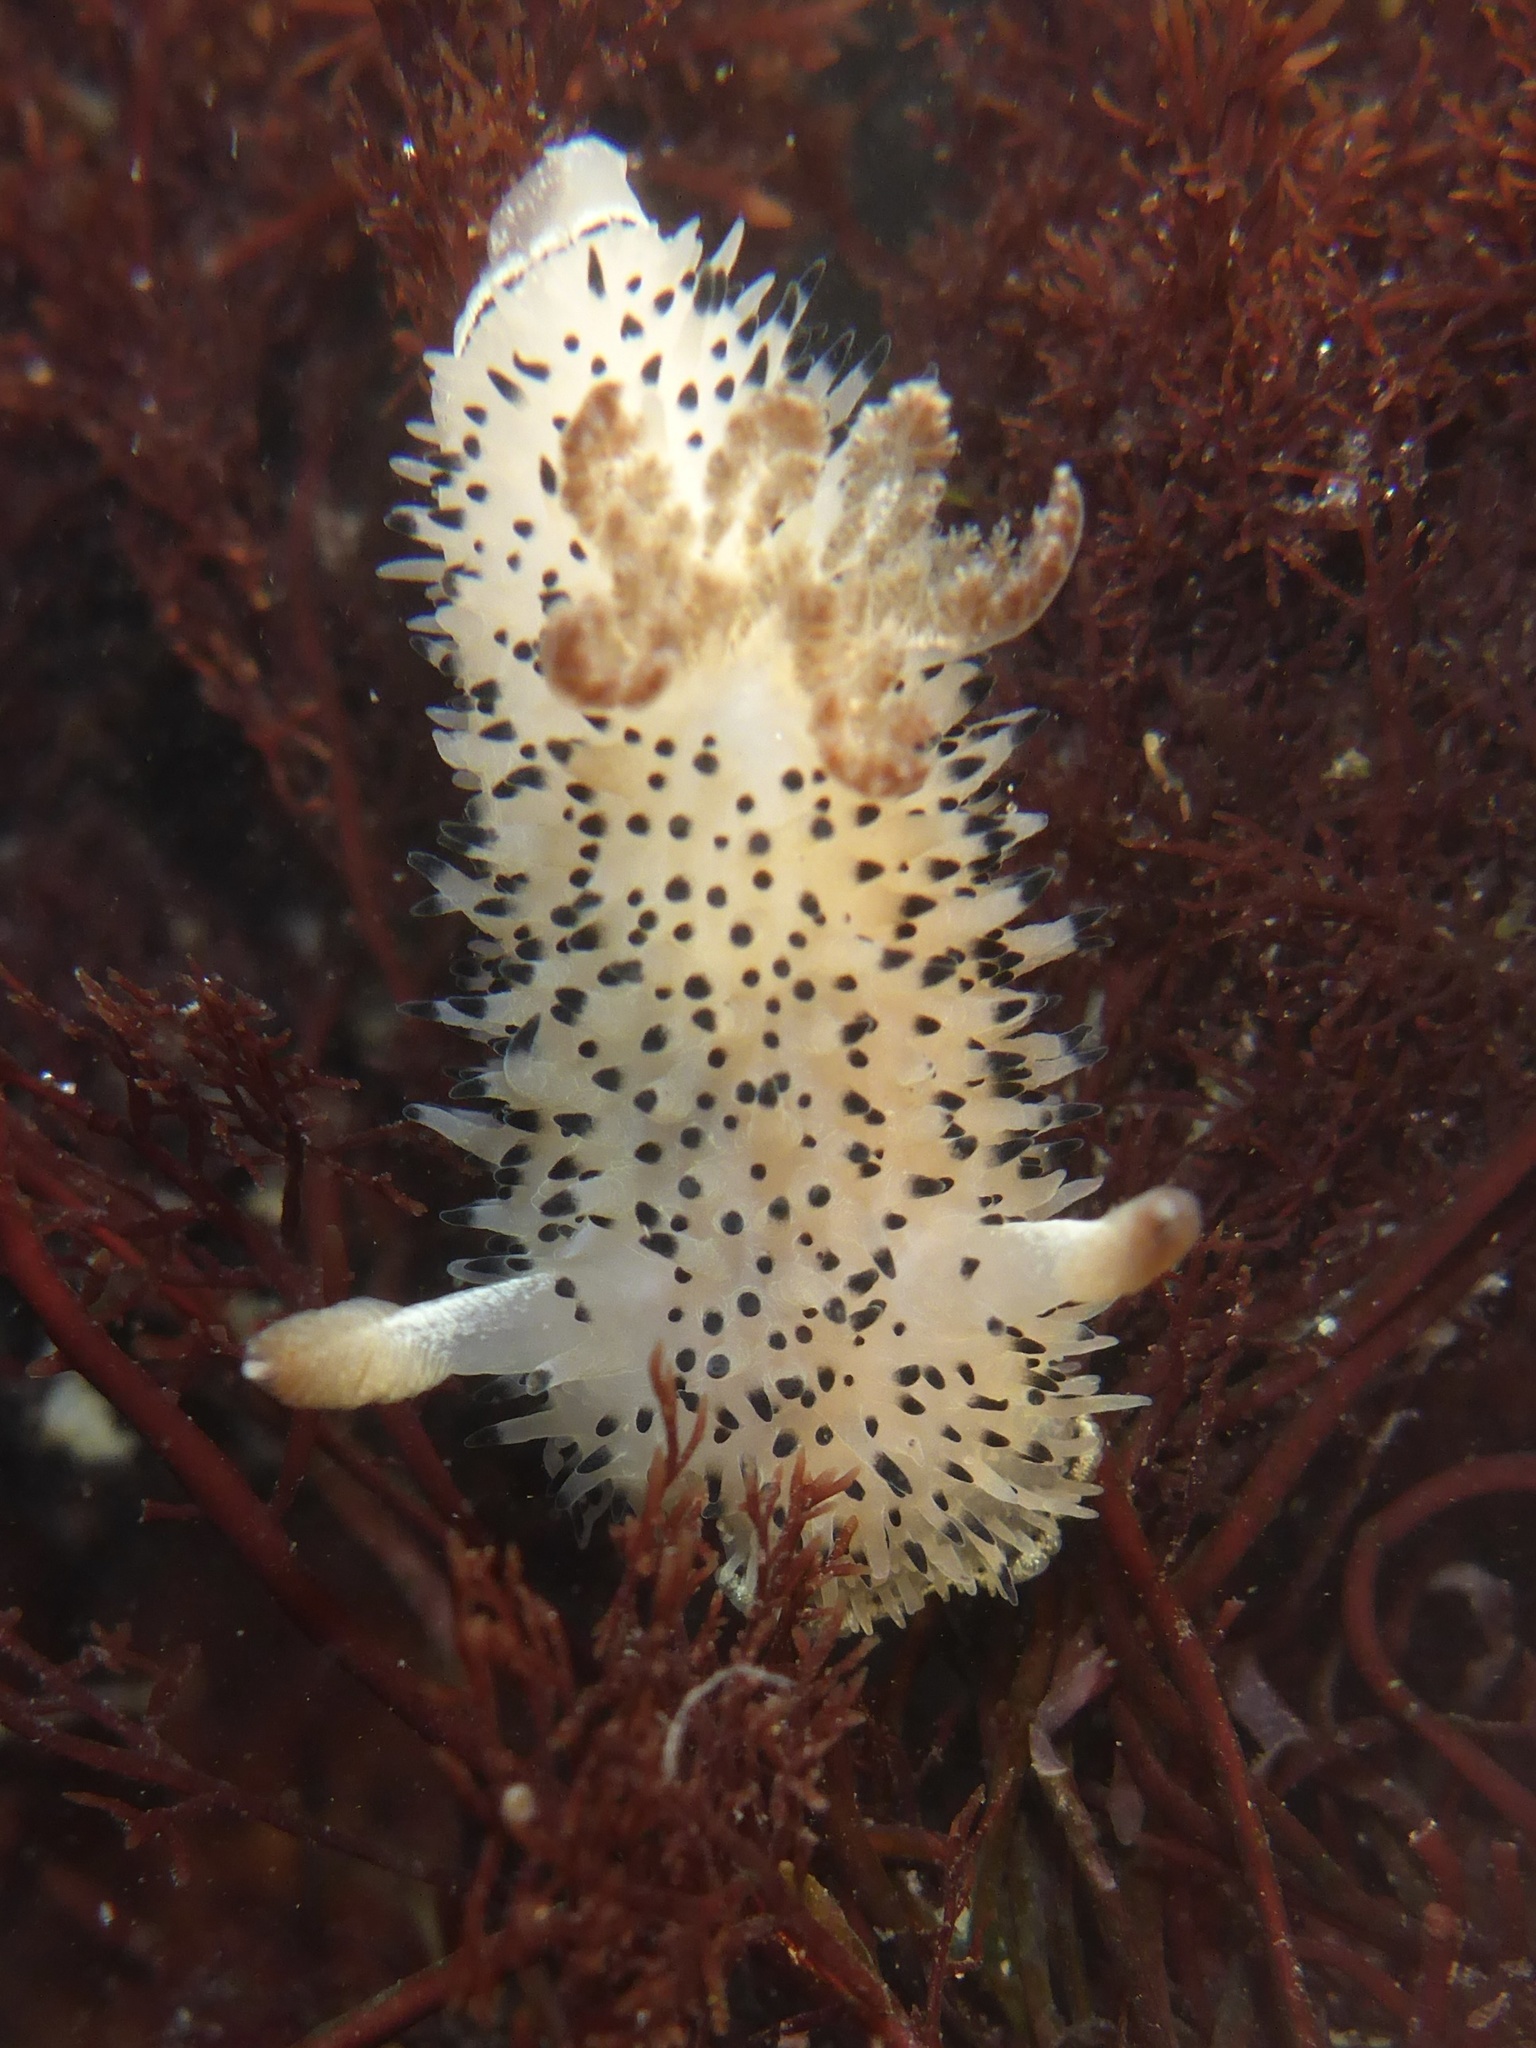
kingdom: Animalia
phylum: Mollusca
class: Gastropoda
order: Nudibranchia
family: Onchidorididae
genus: Acanthodoris
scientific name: Acanthodoris rhodoceras
